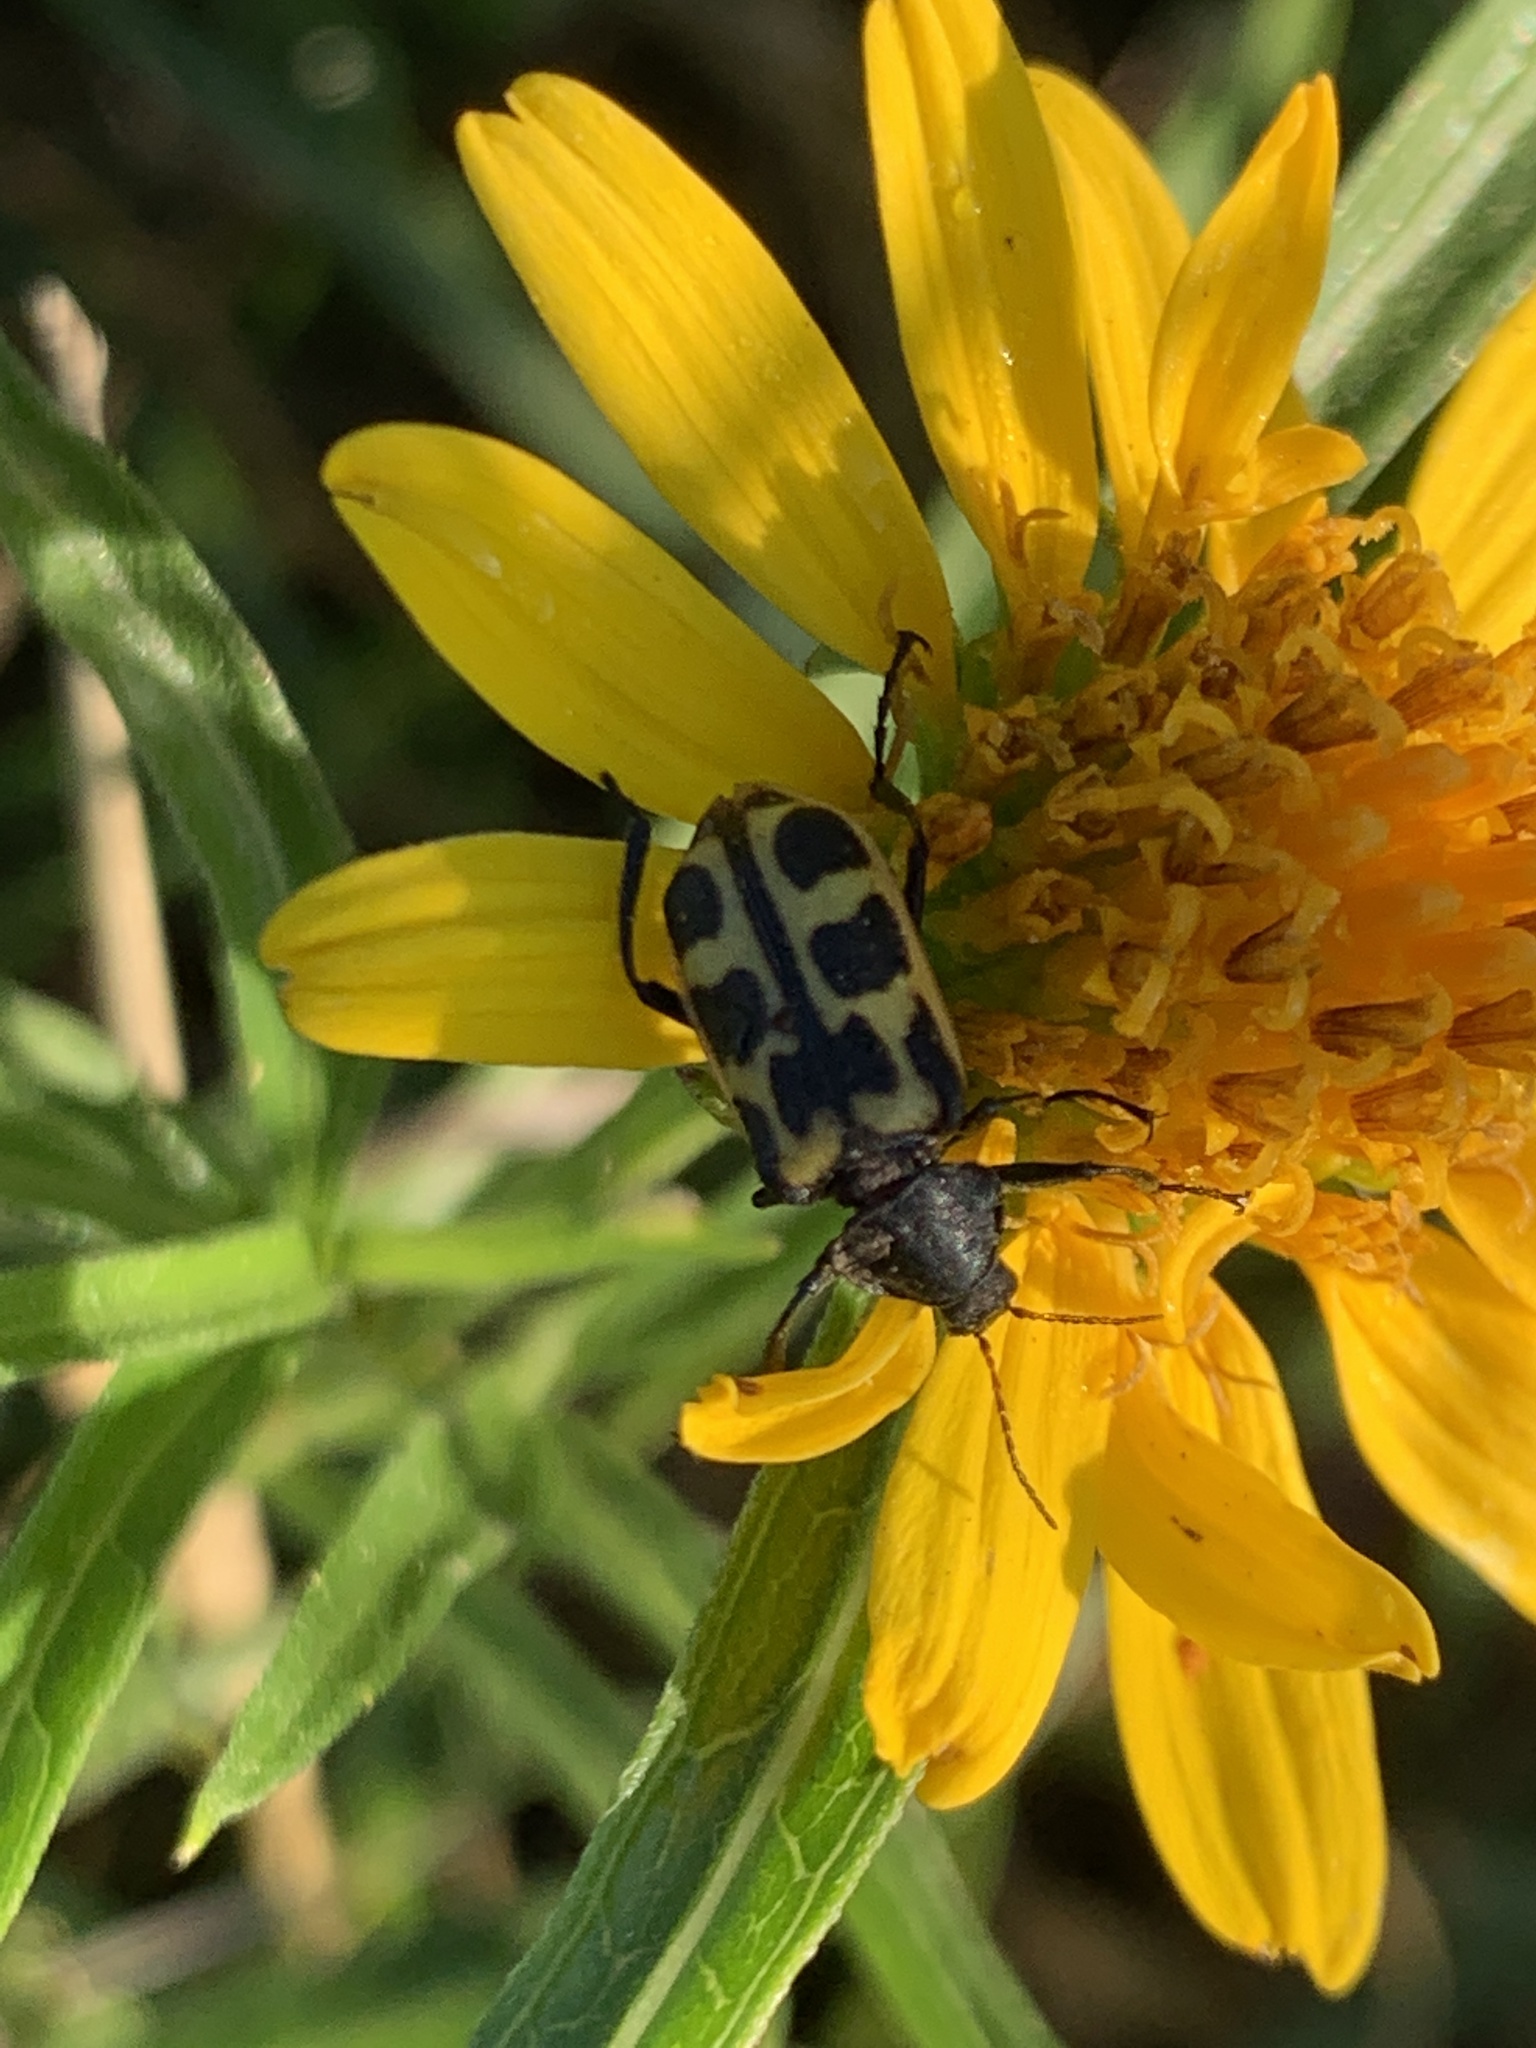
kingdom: Animalia
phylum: Arthropoda
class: Insecta
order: Coleoptera
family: Melyridae
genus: Astylus
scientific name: Astylus atromaculatus
